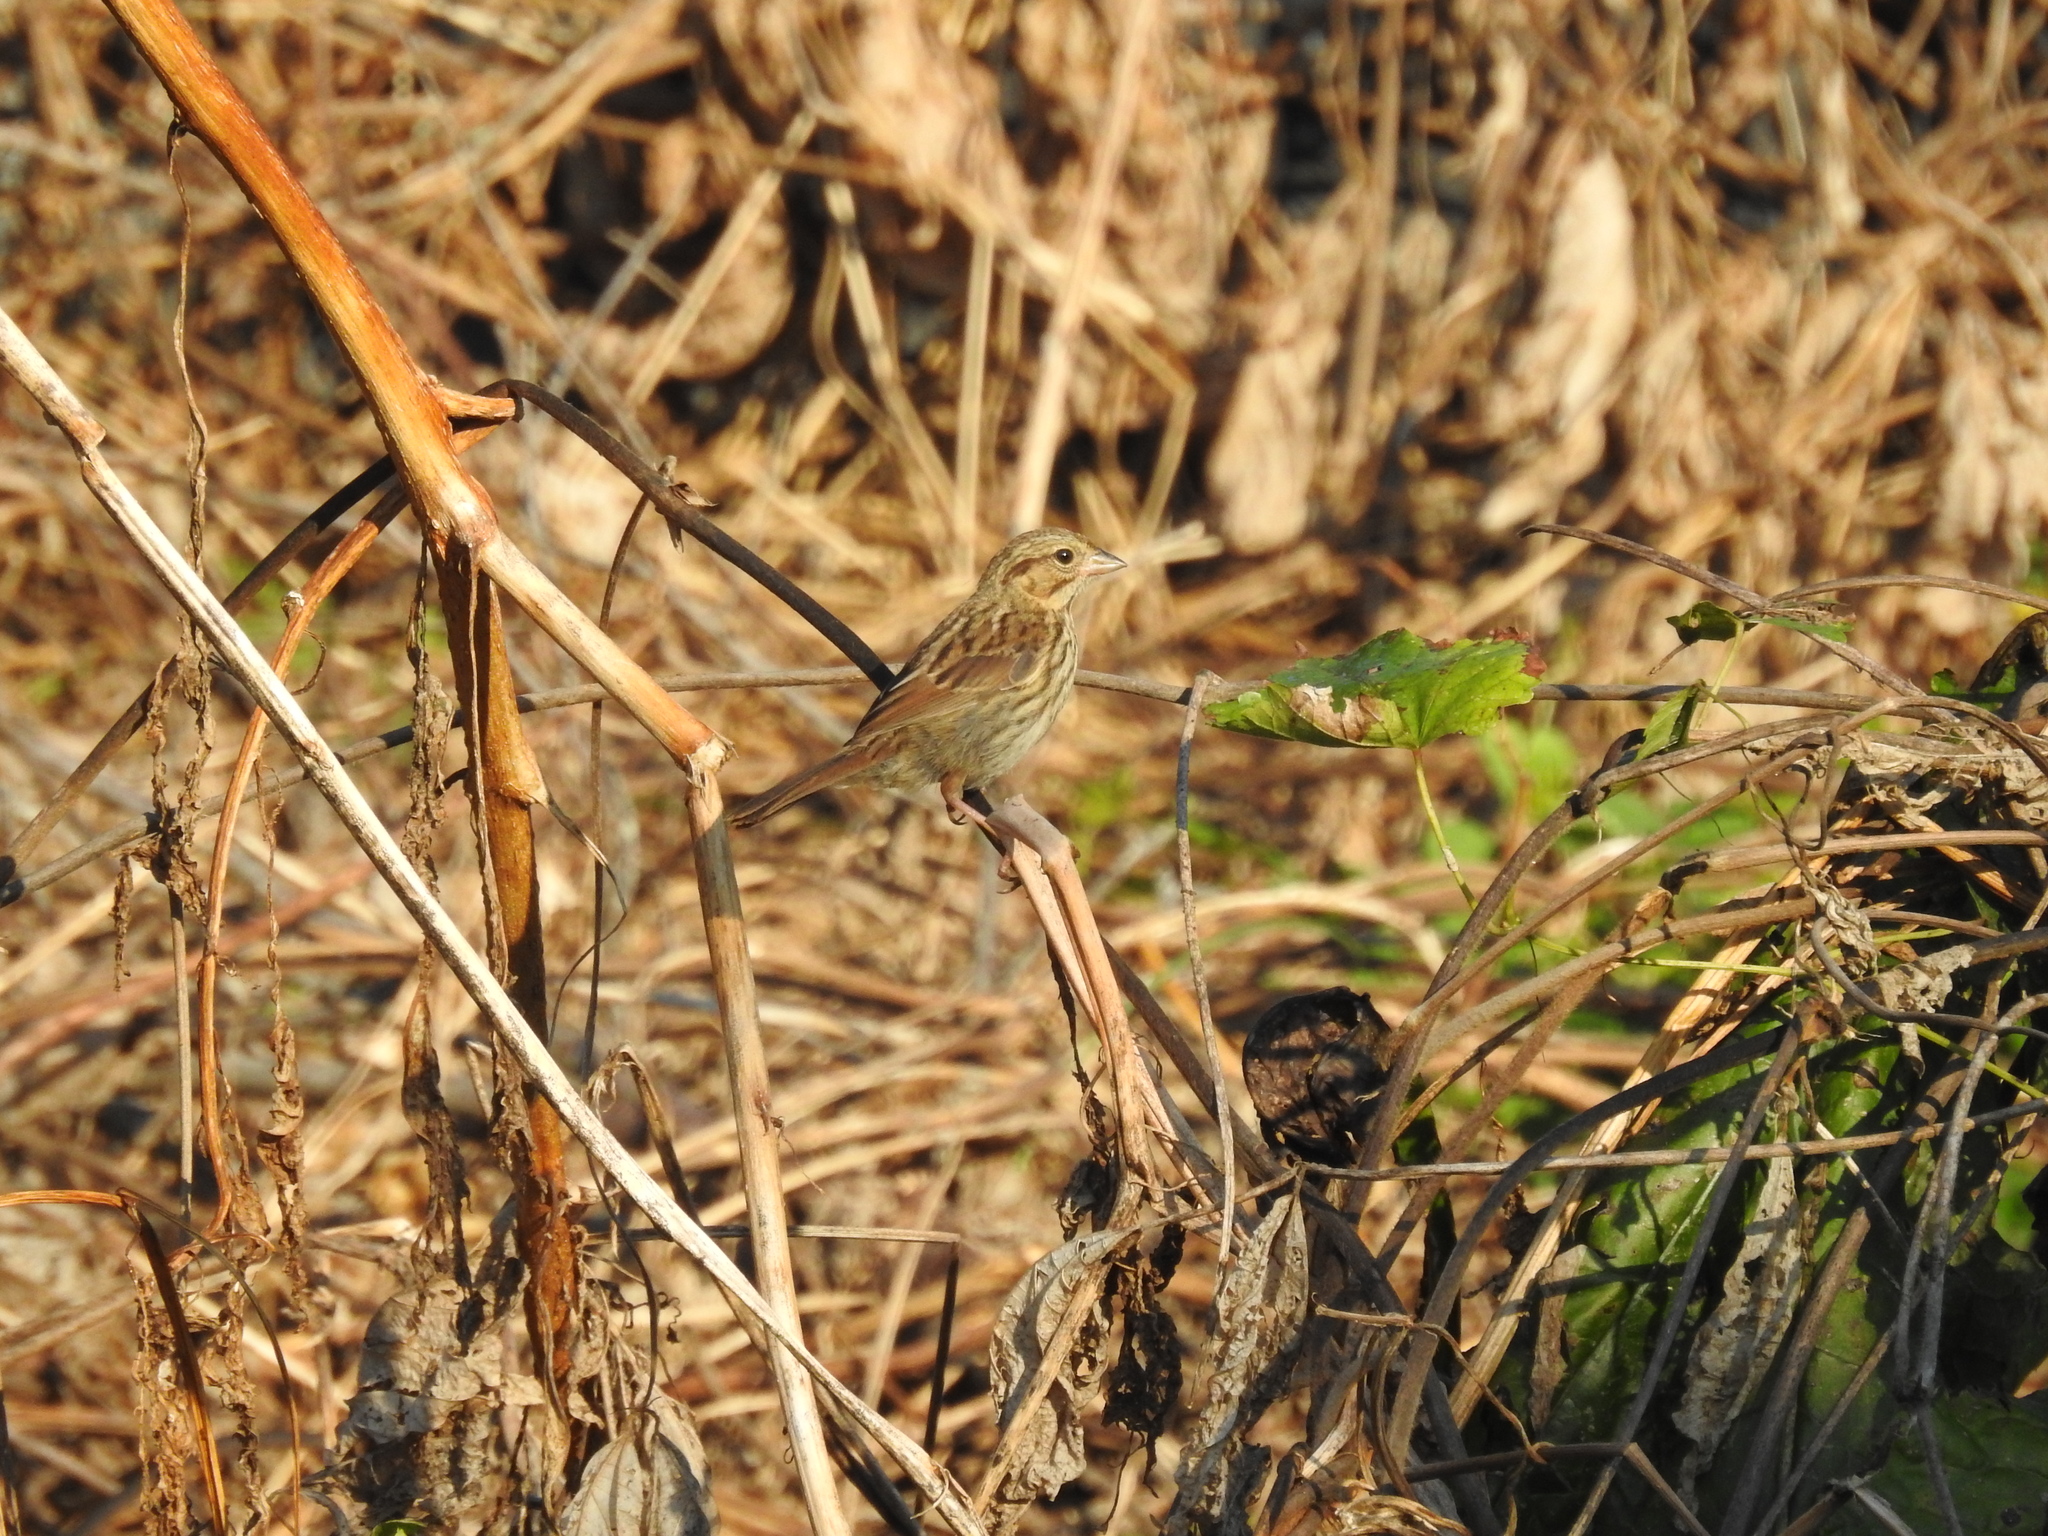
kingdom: Animalia
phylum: Chordata
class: Aves
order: Passeriformes
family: Passerellidae
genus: Melospiza
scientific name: Melospiza melodia
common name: Song sparrow
